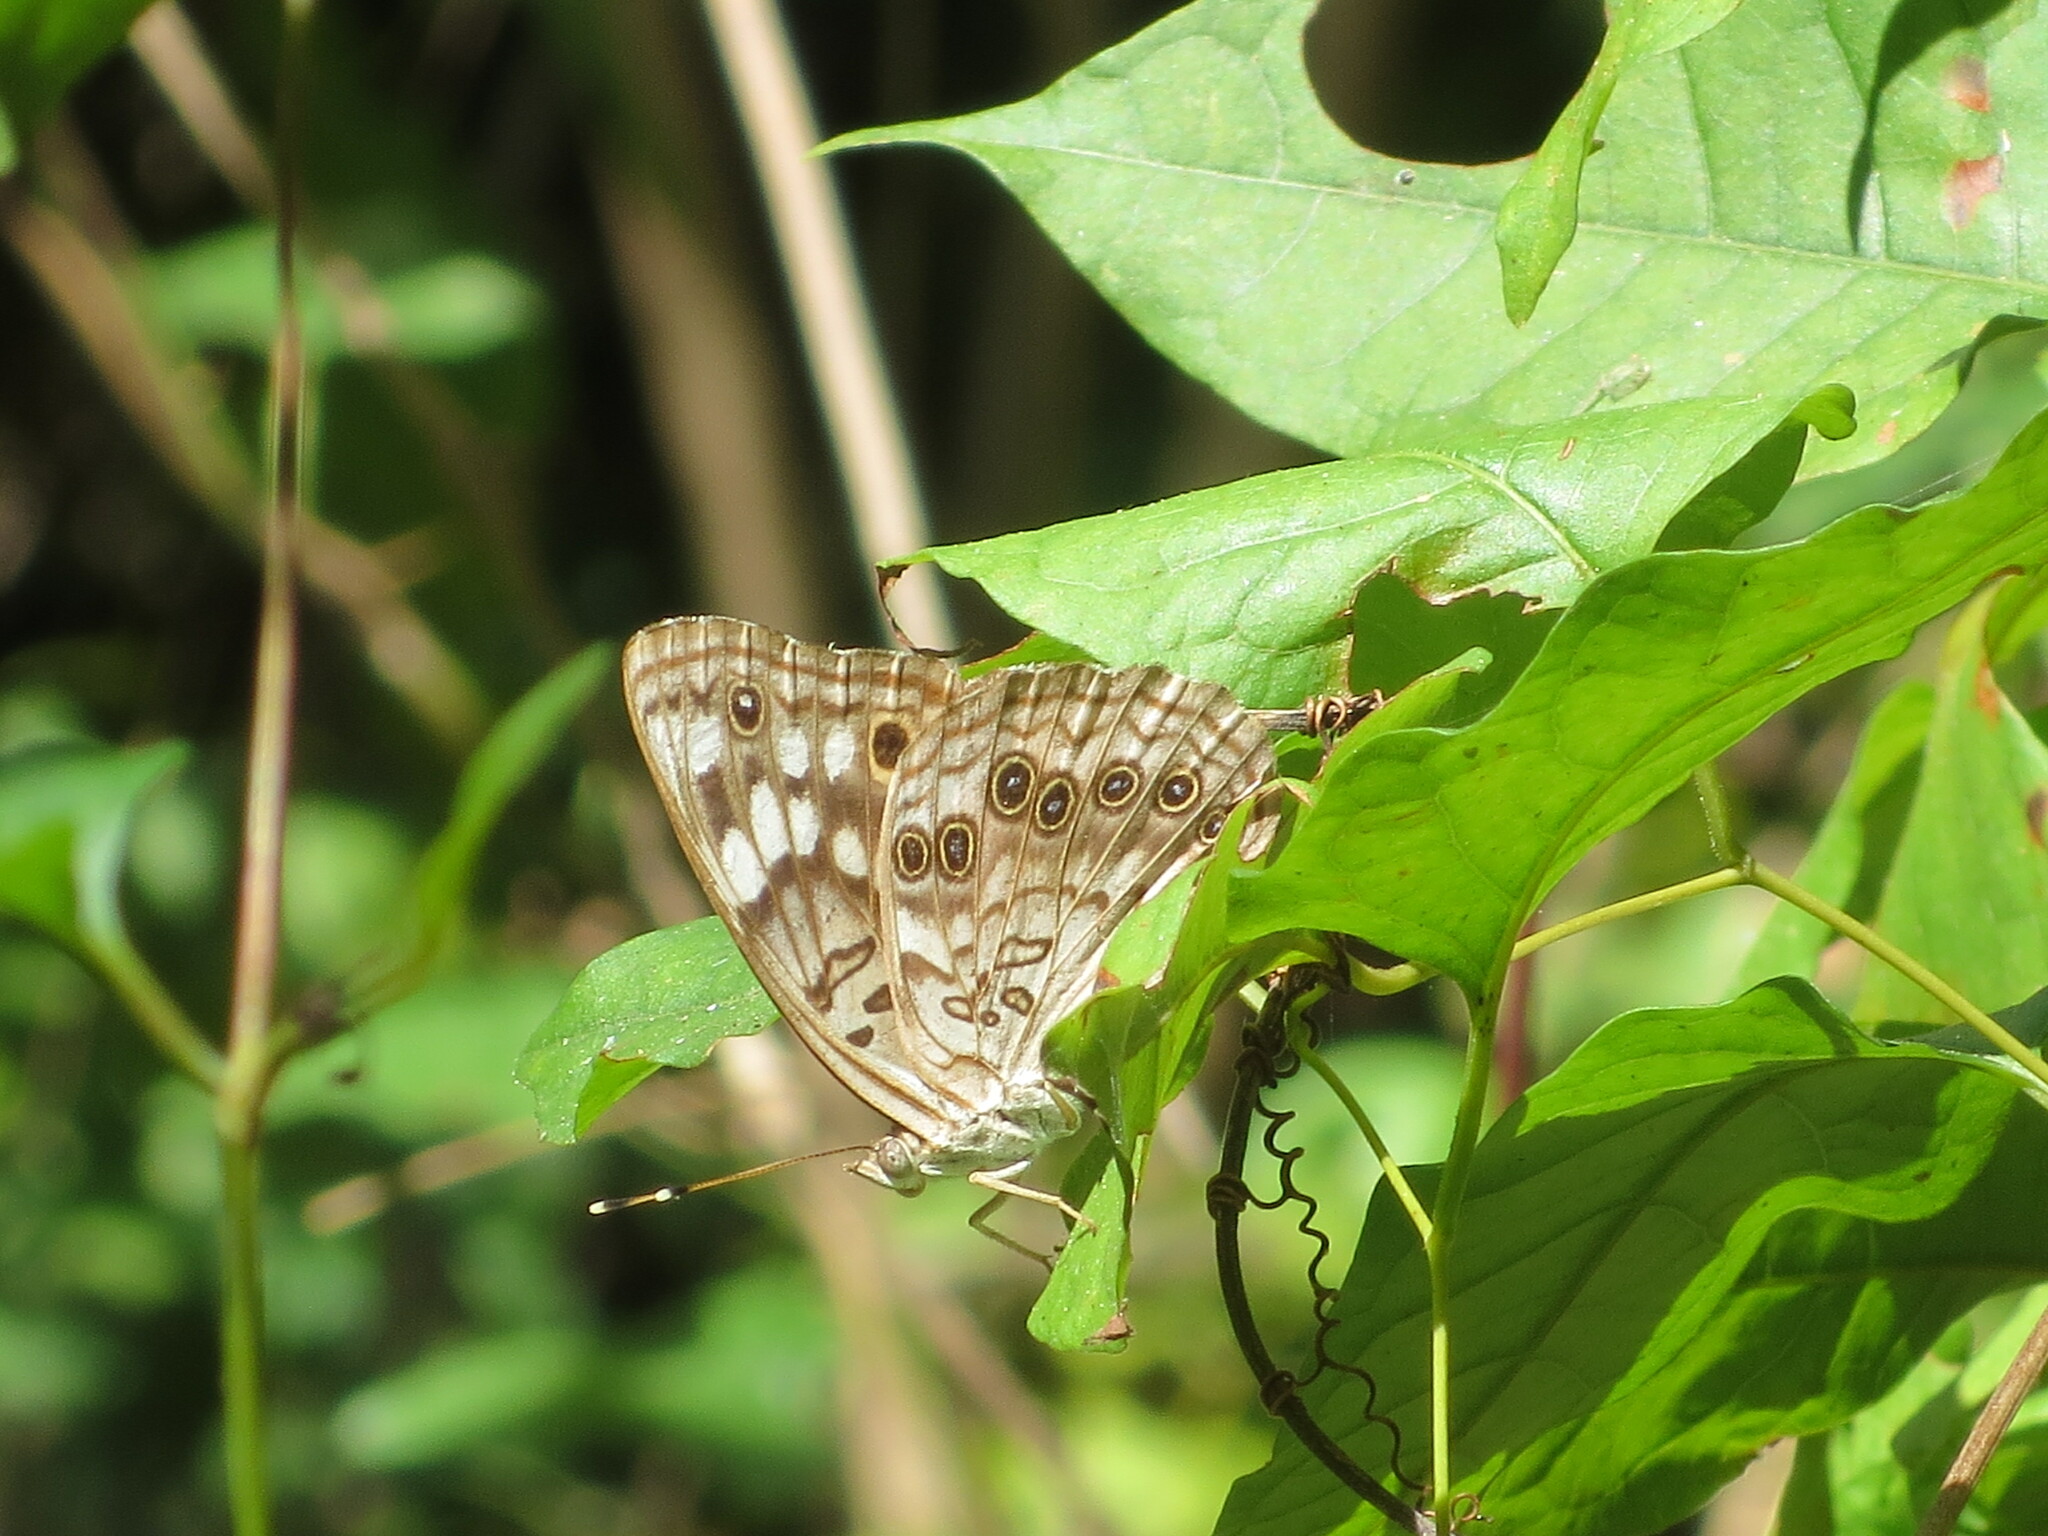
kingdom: Animalia
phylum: Arthropoda
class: Insecta
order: Lepidoptera
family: Nymphalidae
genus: Asterocampa
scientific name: Asterocampa celtis
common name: Hackberry emperor
